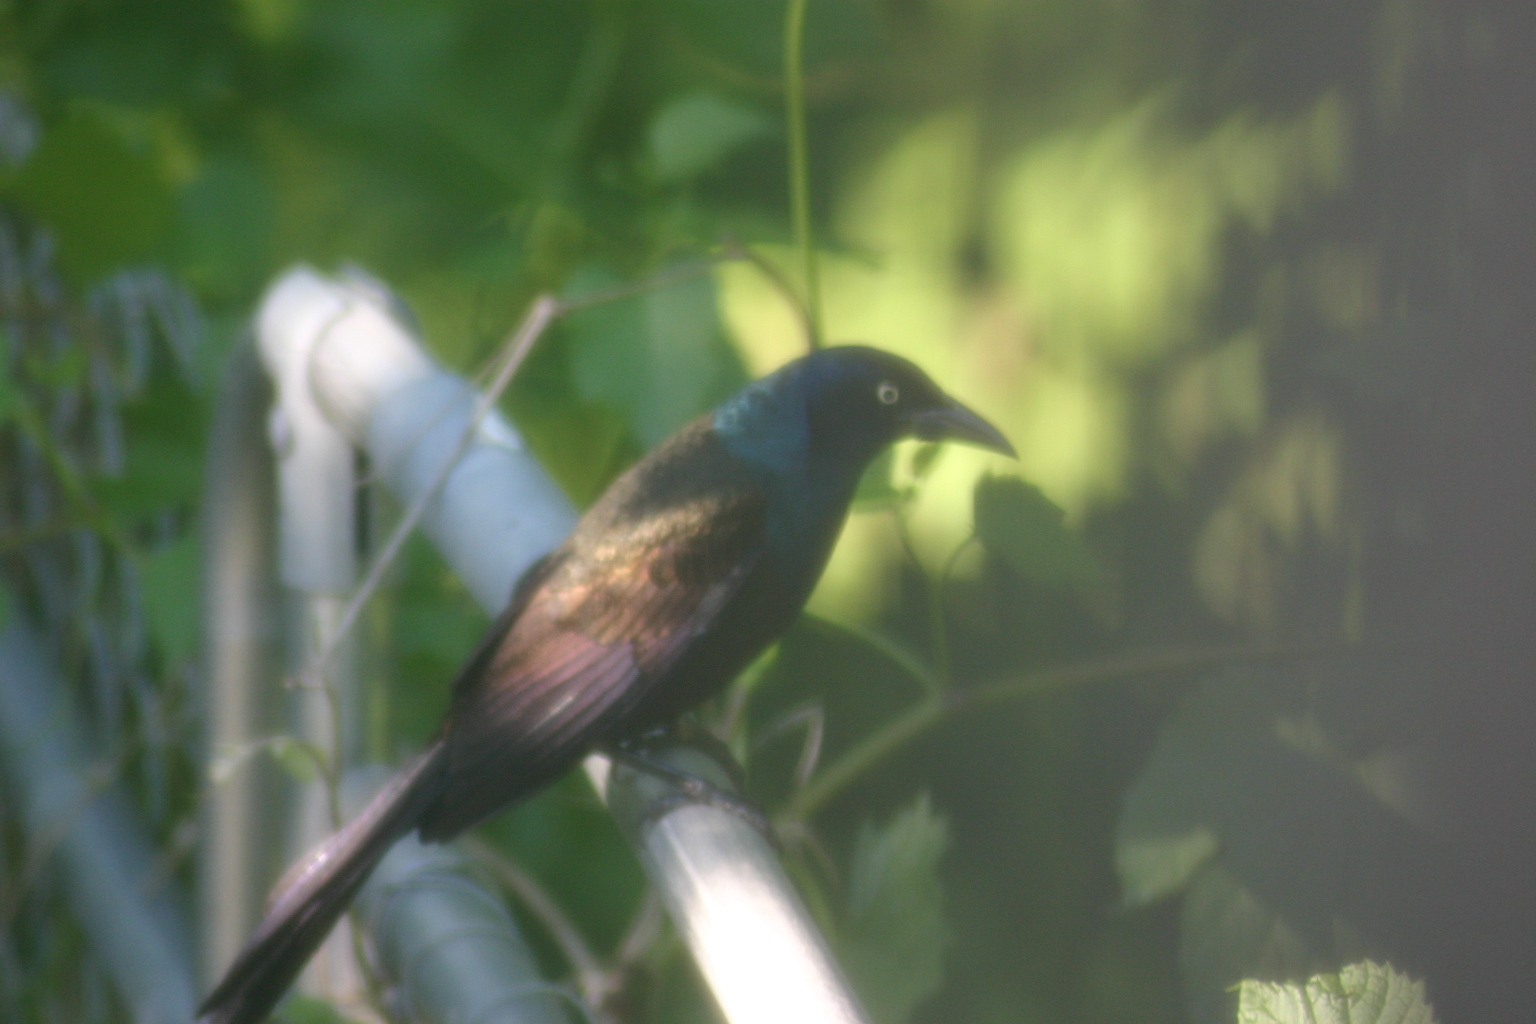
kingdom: Animalia
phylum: Chordata
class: Aves
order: Passeriformes
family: Icteridae
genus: Quiscalus
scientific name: Quiscalus quiscula
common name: Common grackle
